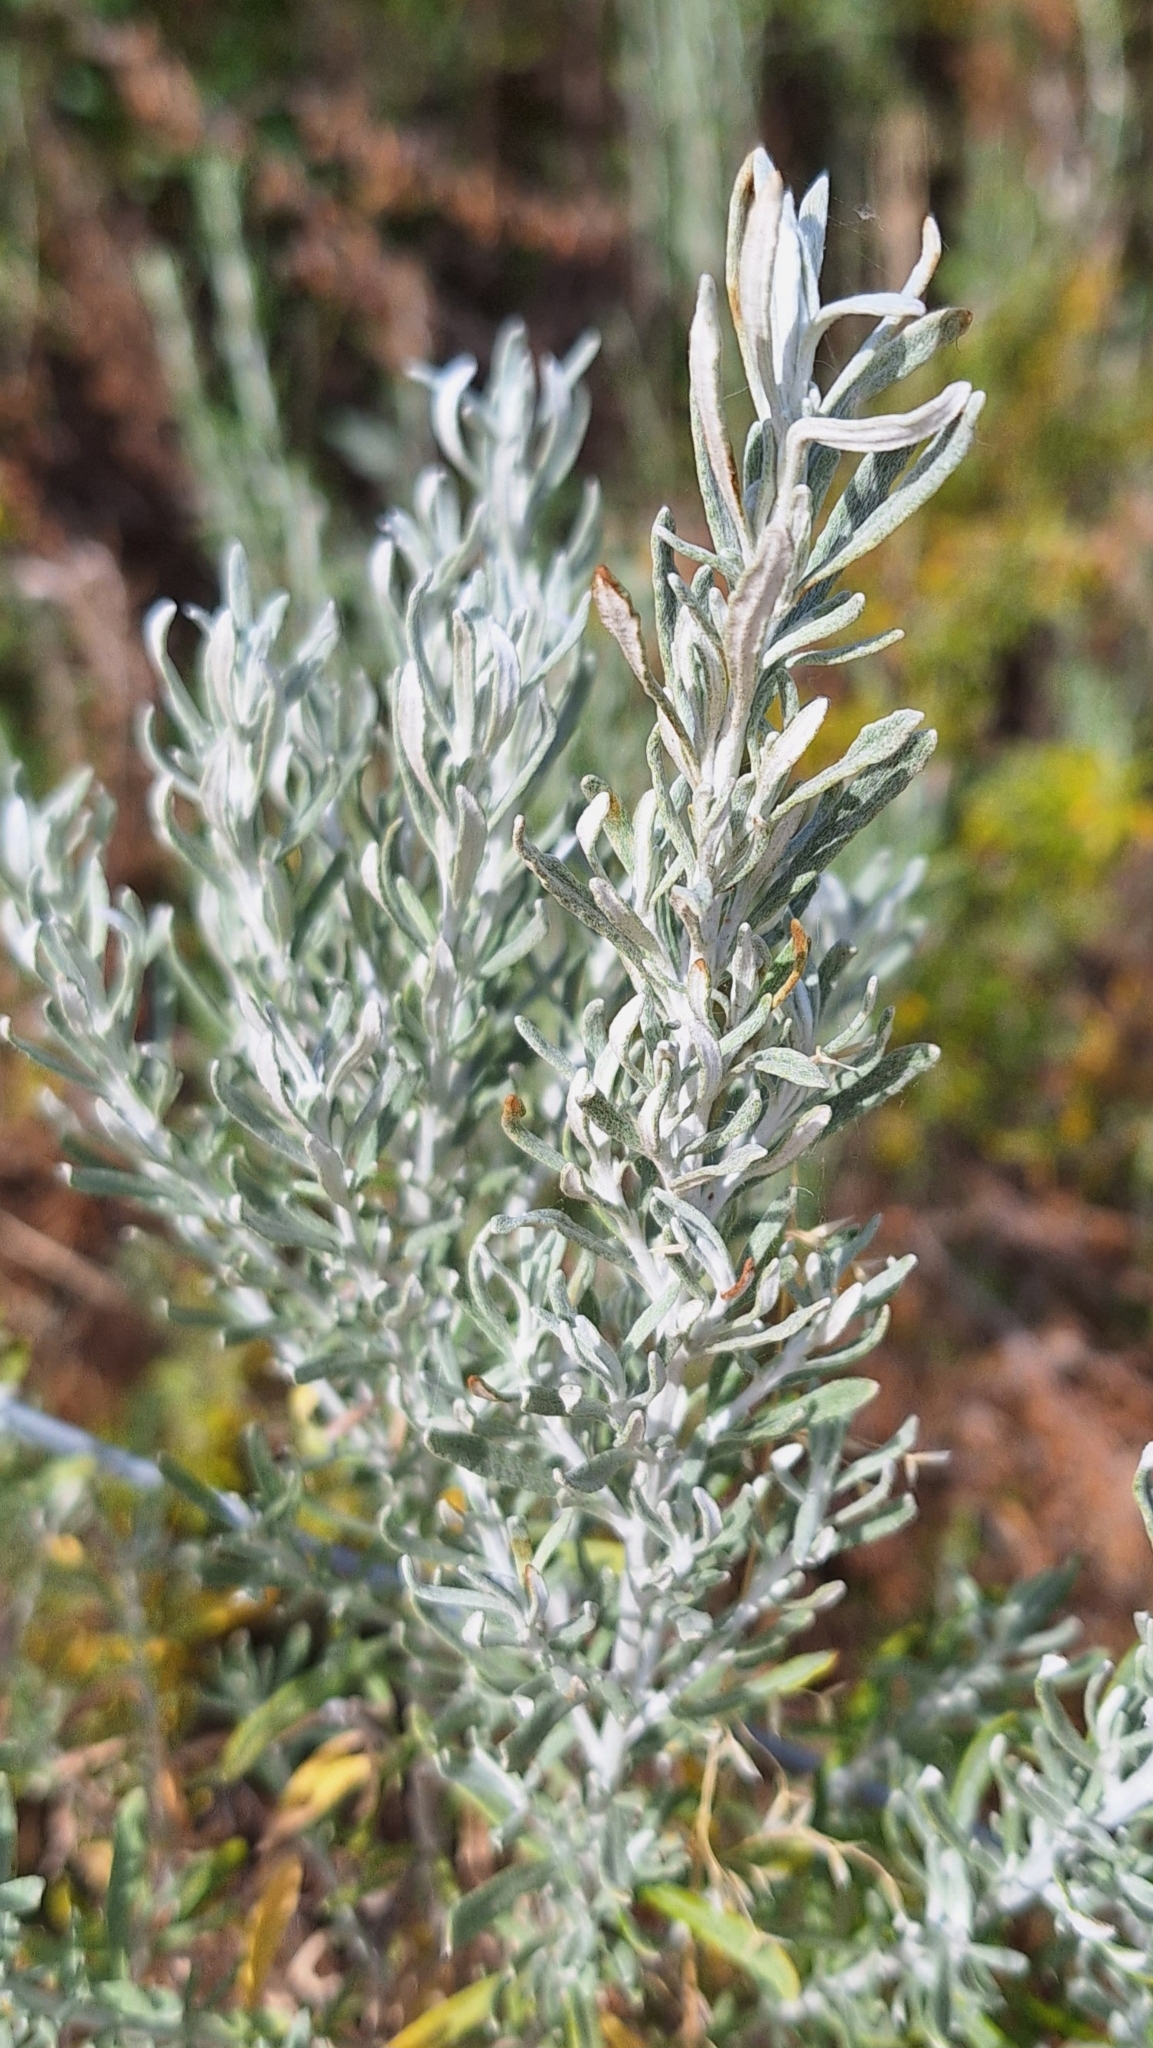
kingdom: Plantae
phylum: Tracheophyta
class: Magnoliopsida
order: Asterales
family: Asteraceae
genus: Olearia
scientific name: Olearia axillaris
